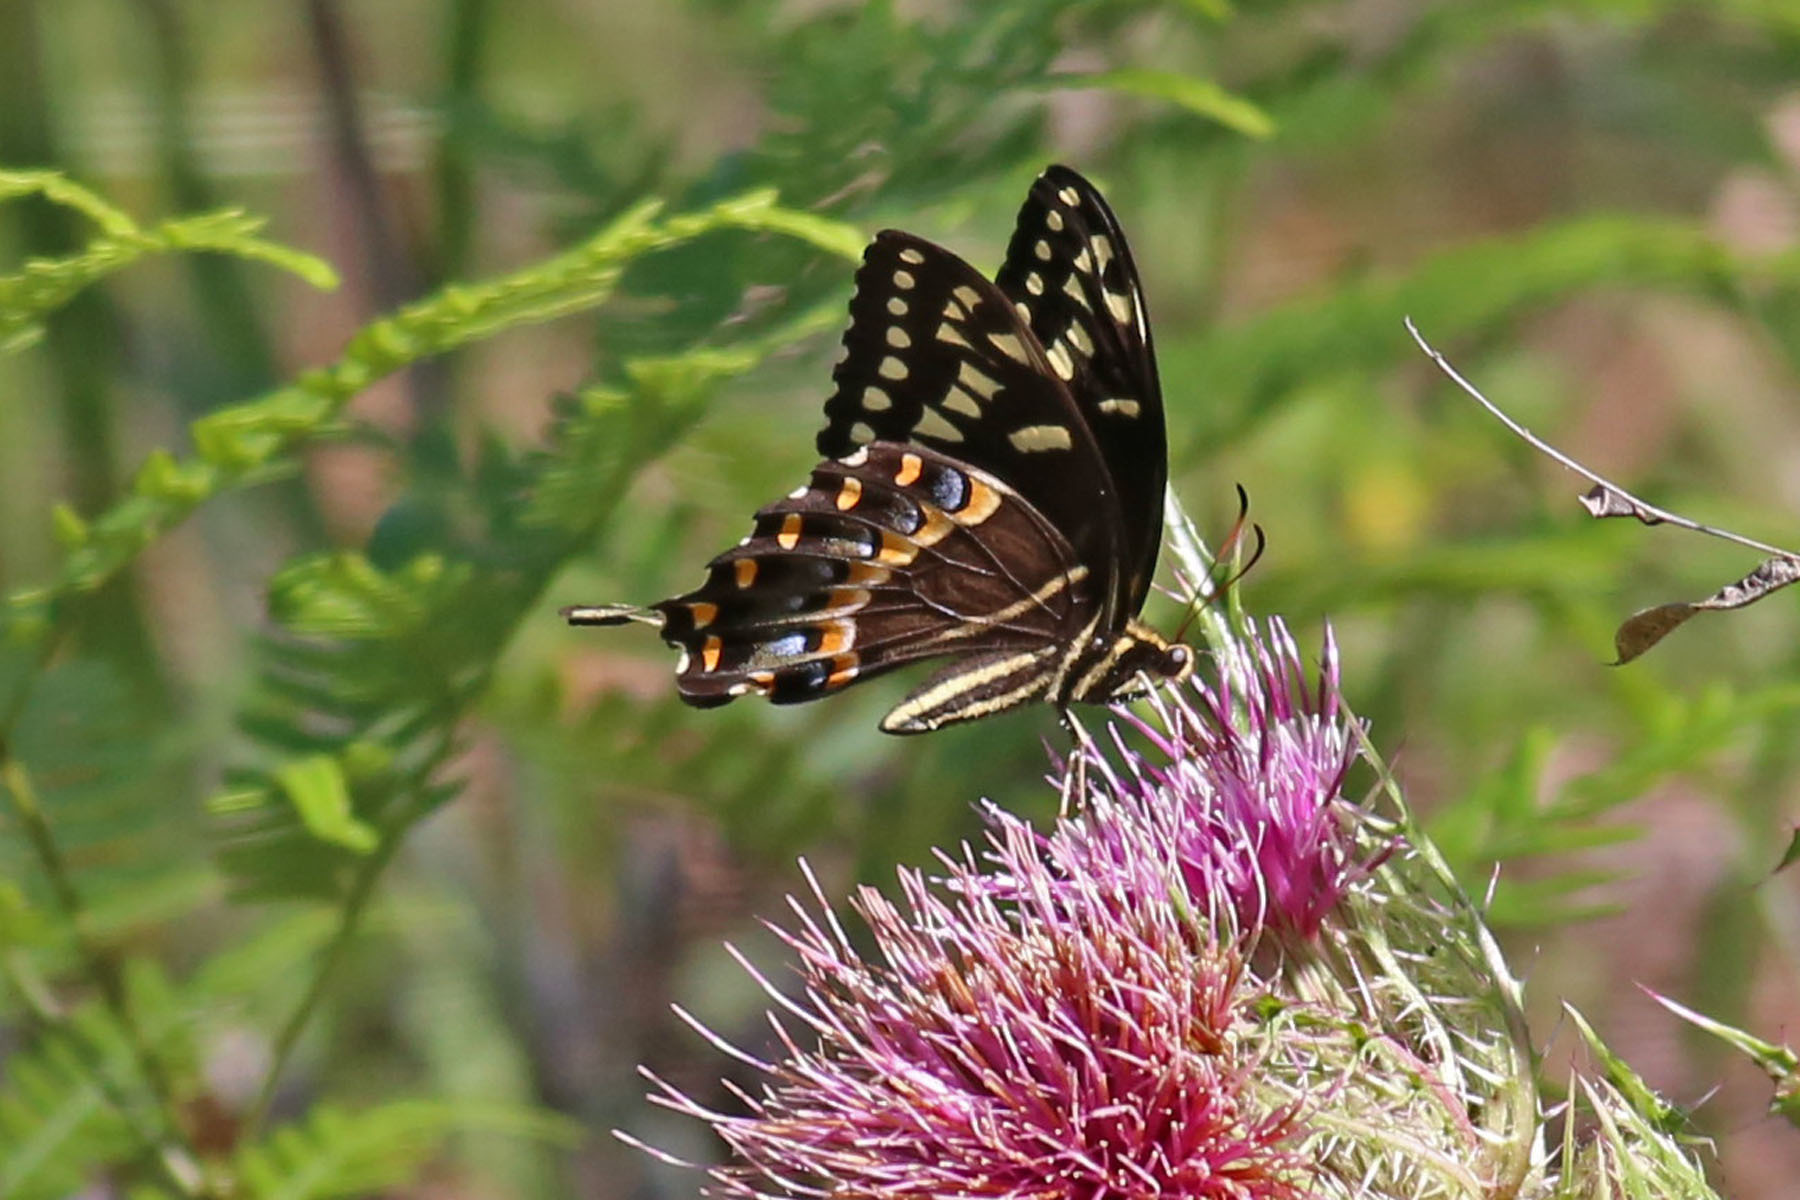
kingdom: Animalia
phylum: Arthropoda
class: Insecta
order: Lepidoptera
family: Papilionidae
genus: Papilio
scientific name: Papilio palamedes
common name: Palamedes swallowtail
